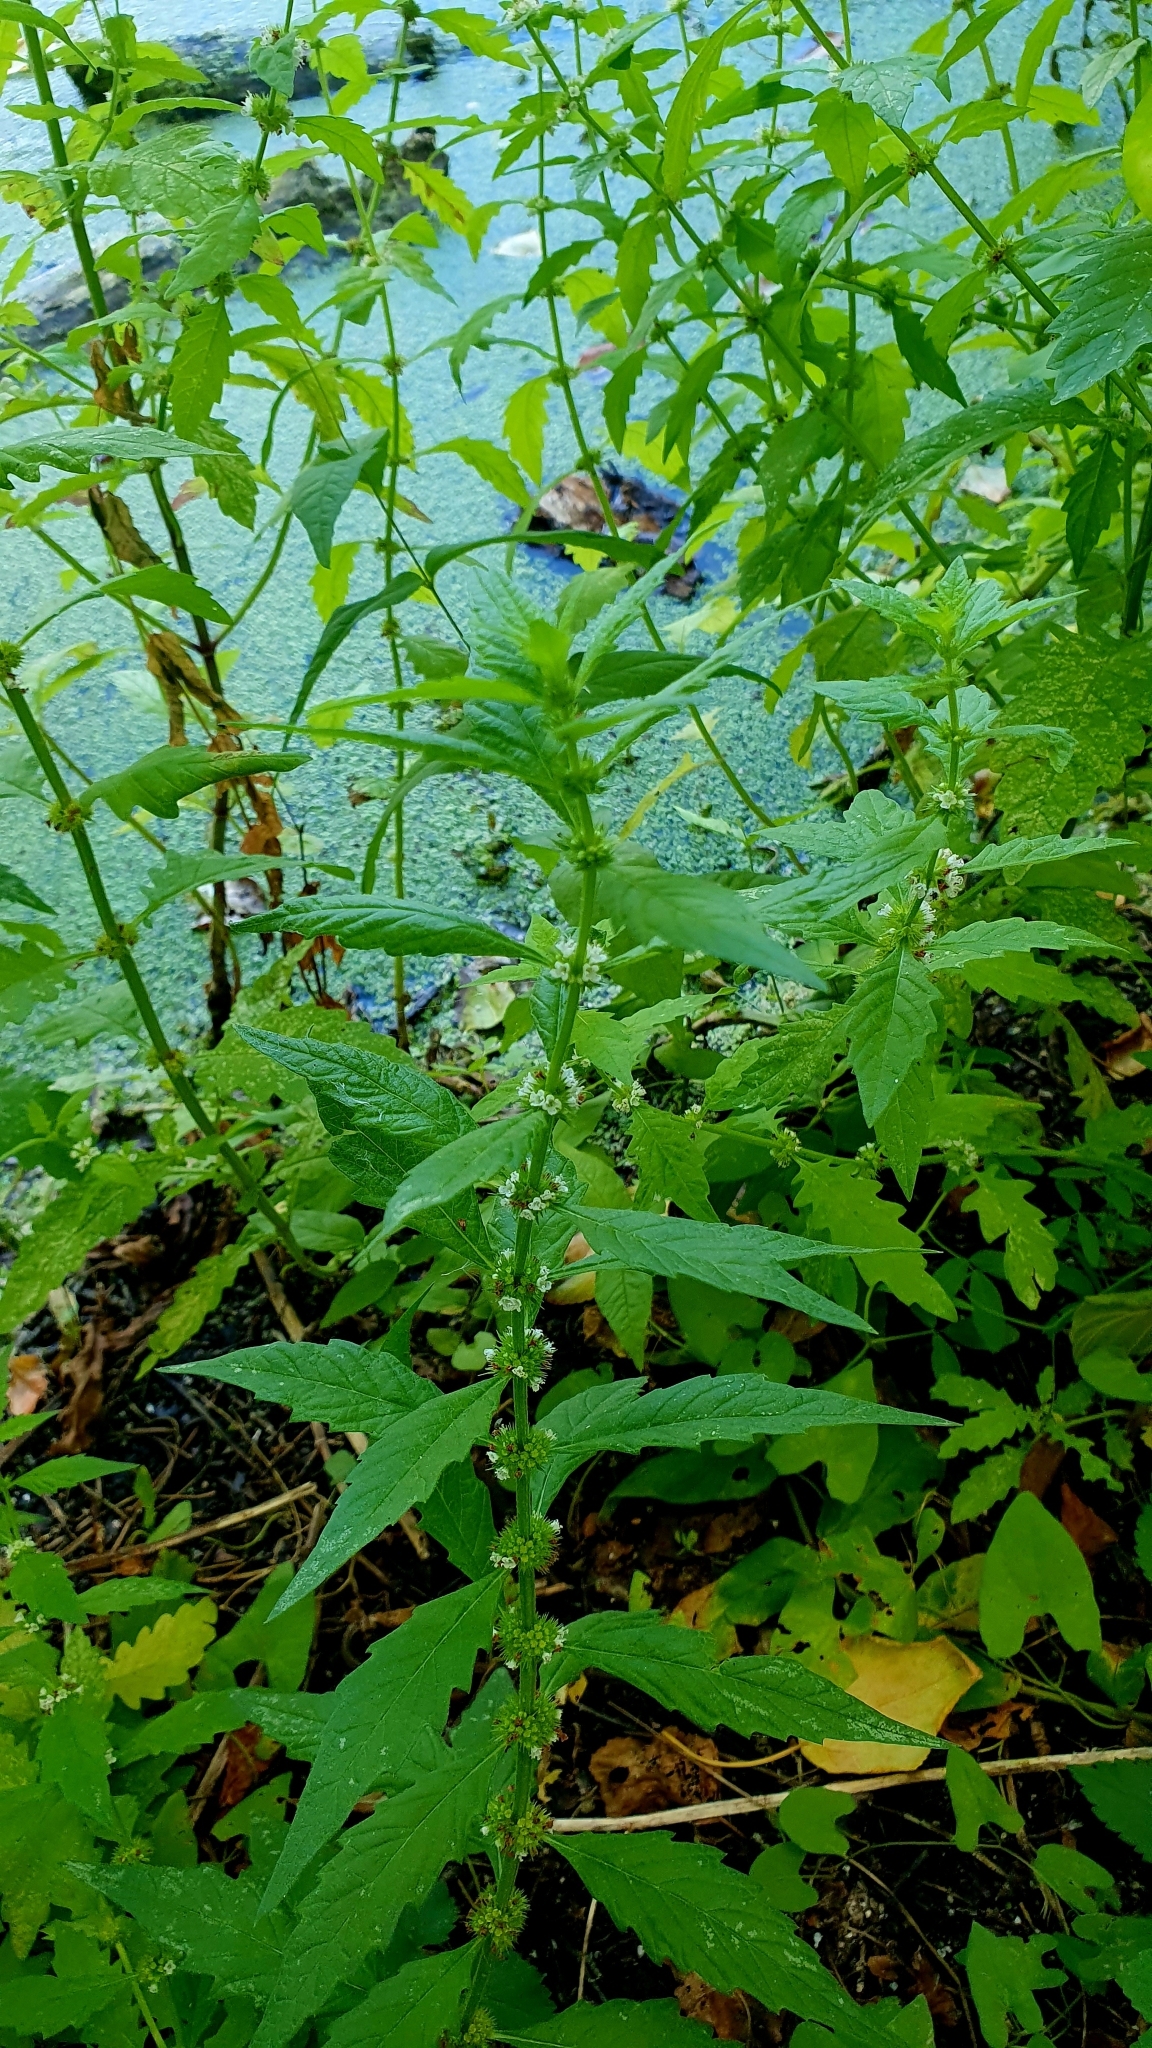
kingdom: Plantae
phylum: Tracheophyta
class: Magnoliopsida
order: Lamiales
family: Lamiaceae
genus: Lycopus
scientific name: Lycopus europaeus
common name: European bugleweed
